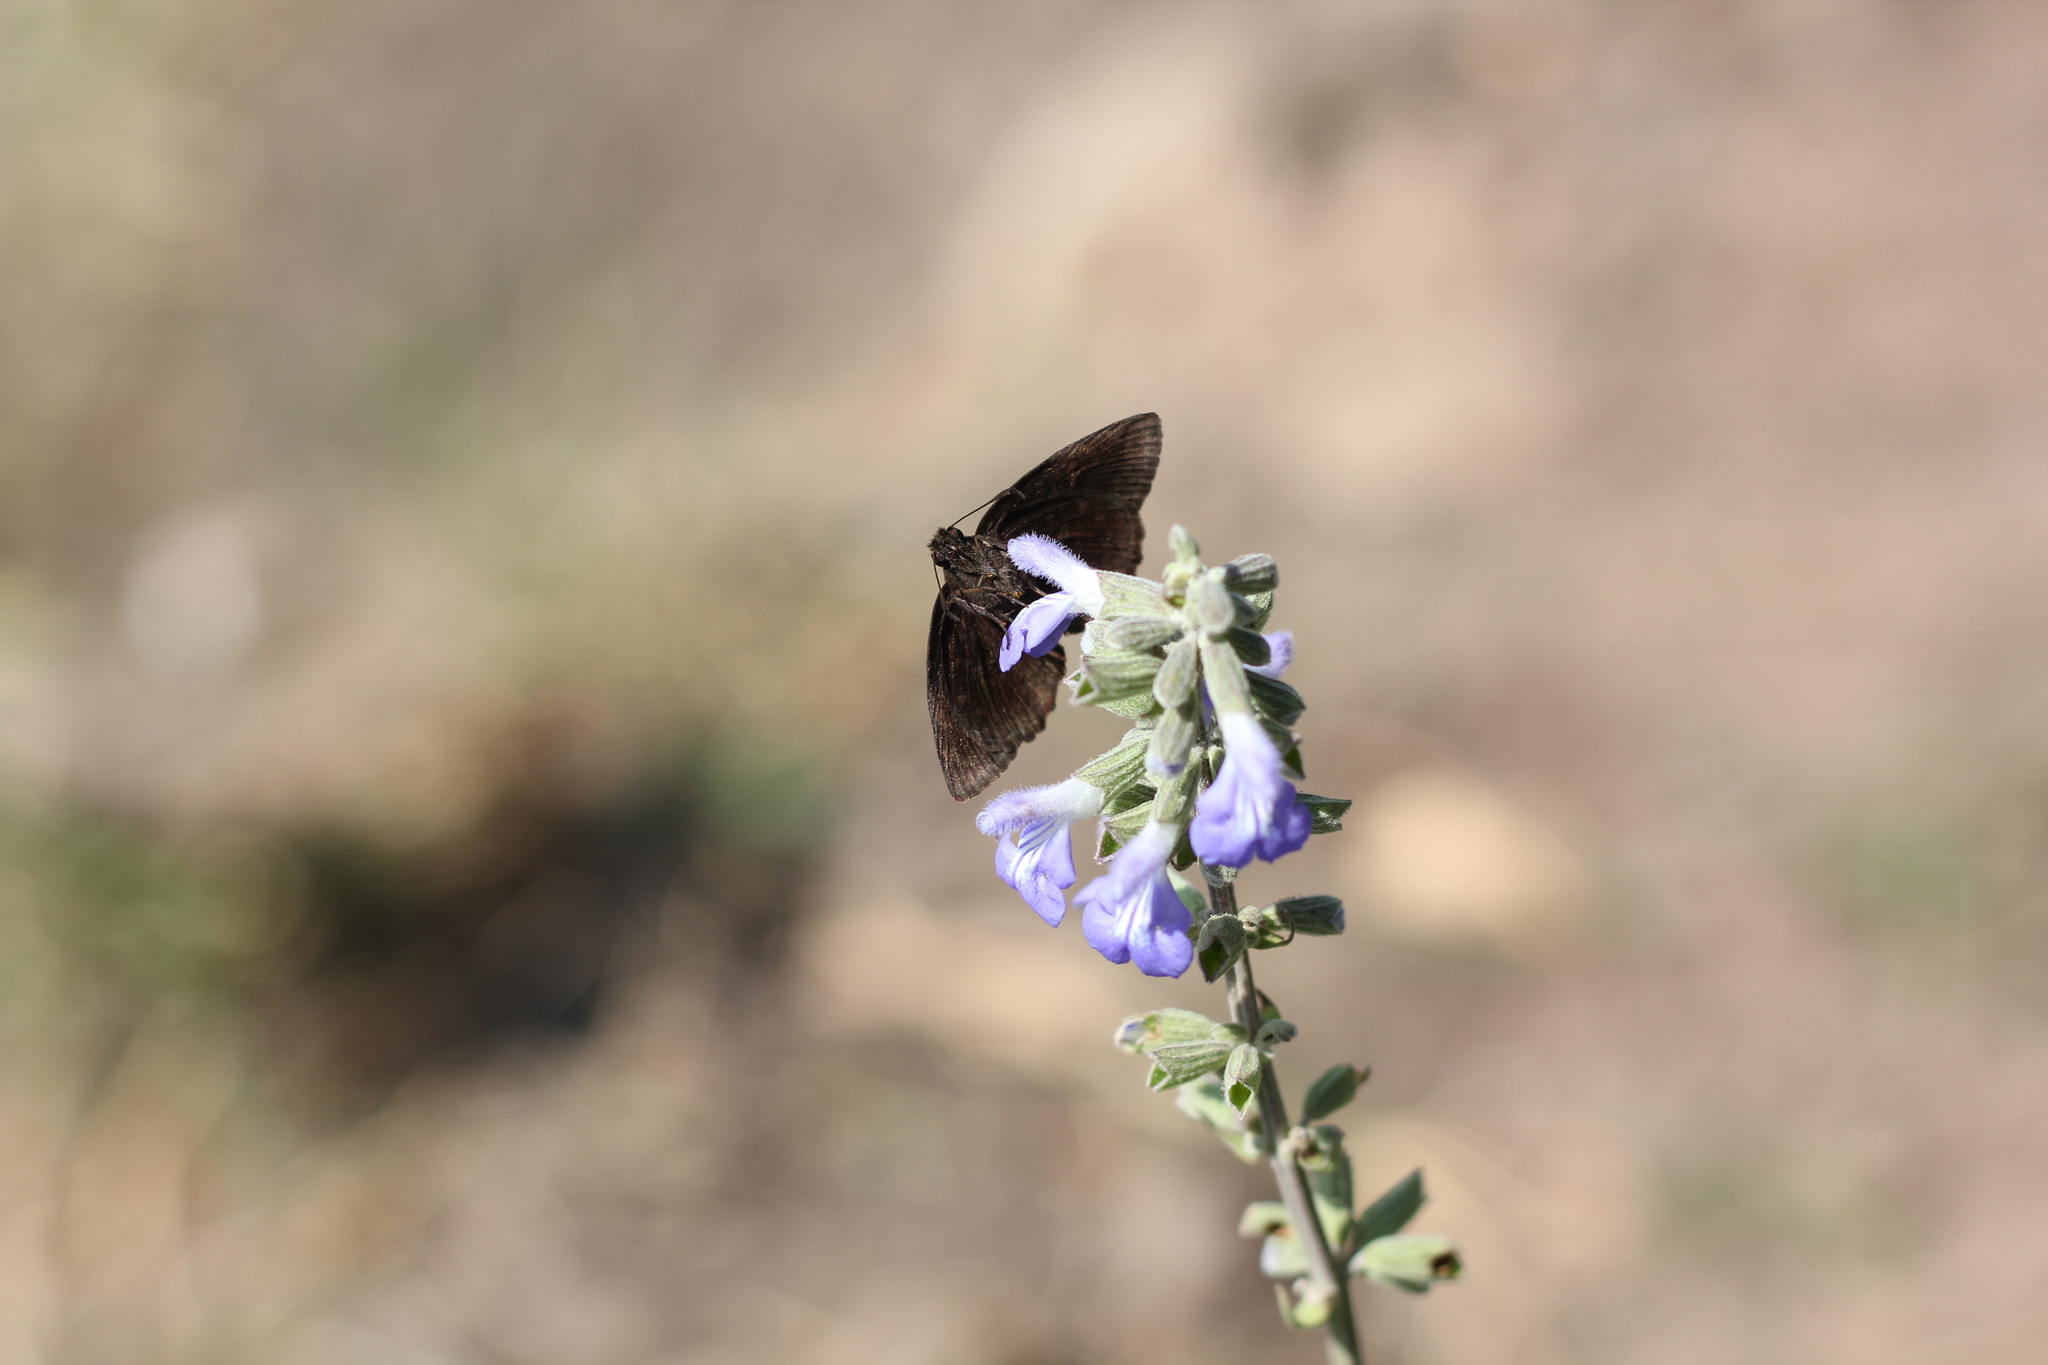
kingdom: Animalia
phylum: Arthropoda
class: Insecta
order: Lepidoptera
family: Hesperiidae
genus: Viola
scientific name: Viola minor
